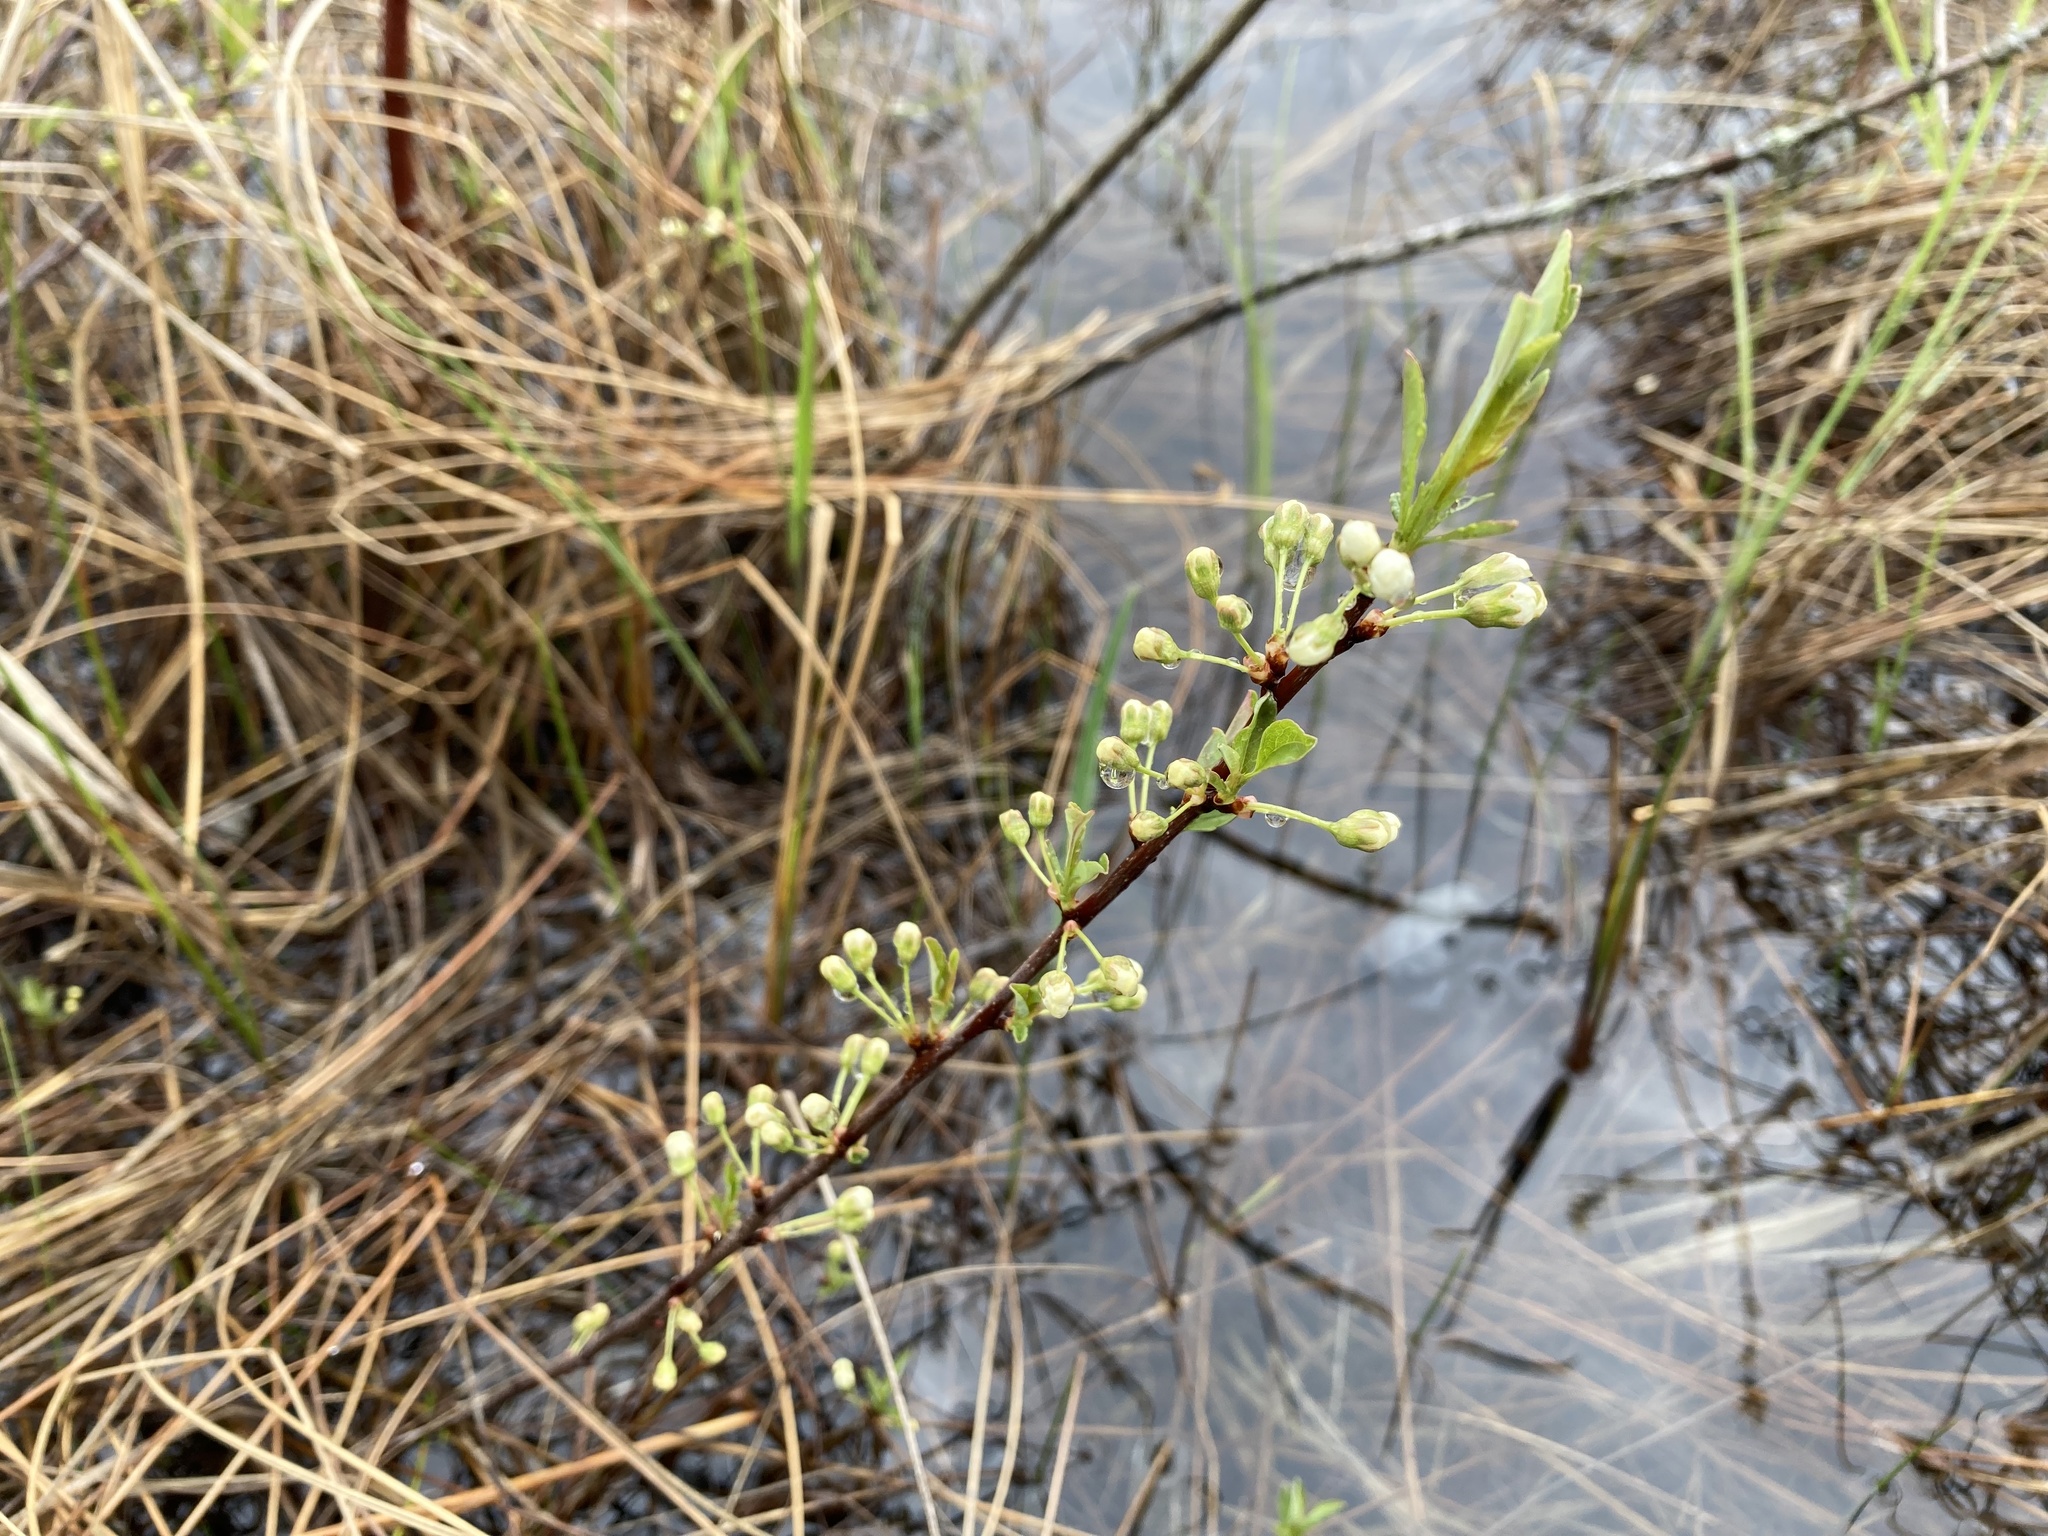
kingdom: Plantae
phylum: Tracheophyta
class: Magnoliopsida
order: Rosales
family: Rosaceae
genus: Prunus
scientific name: Prunus pumila
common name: Dwarf cherry
